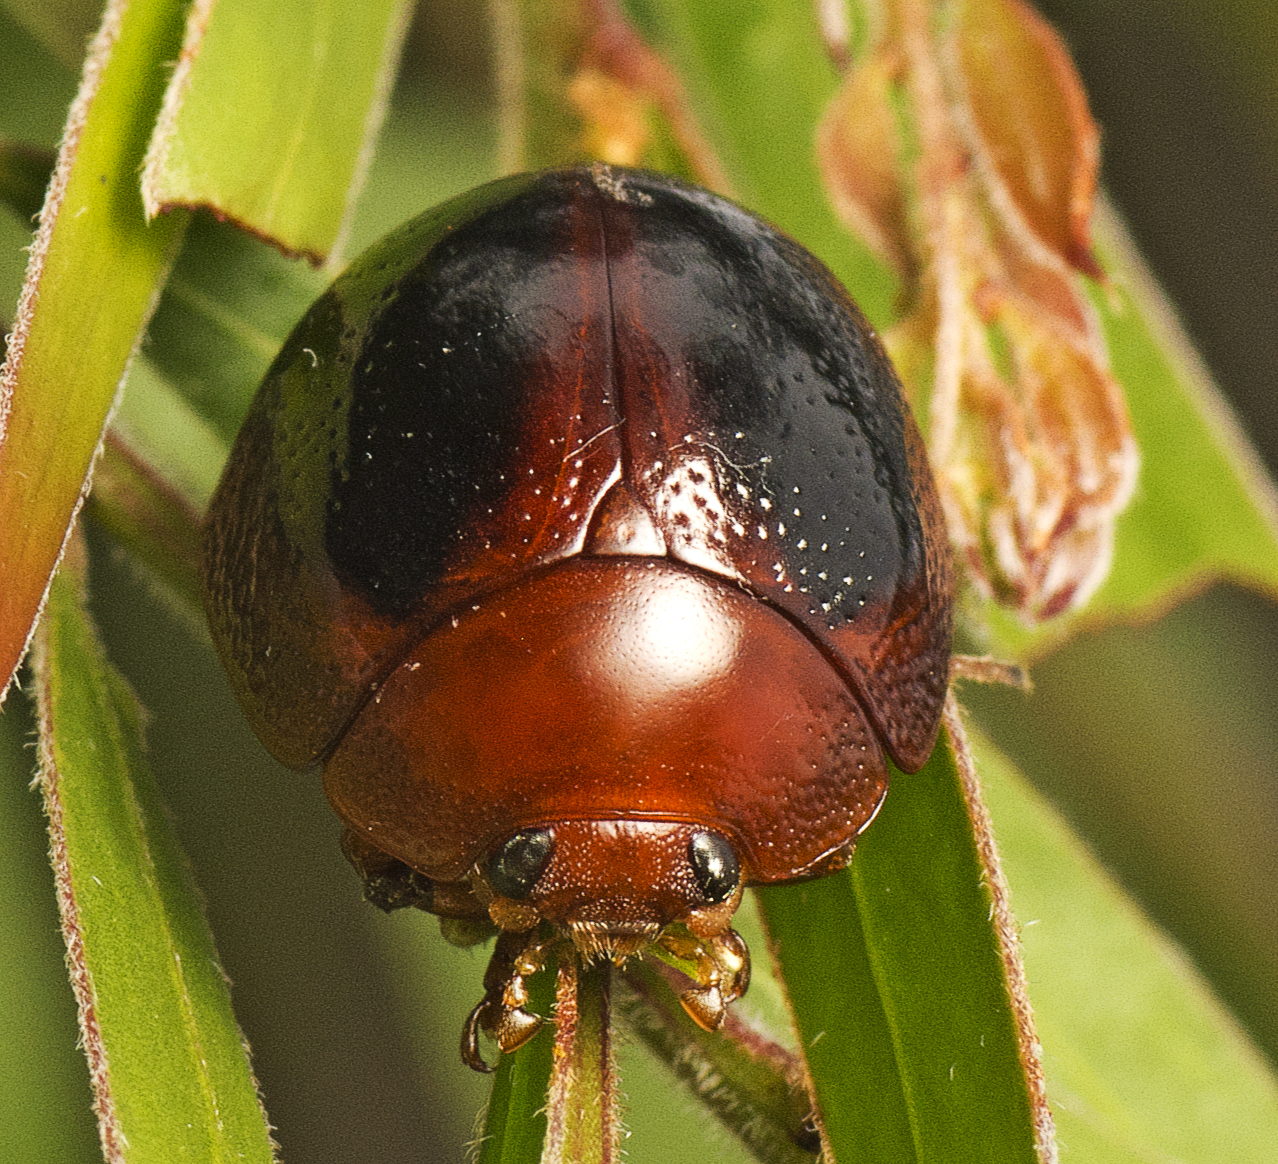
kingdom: Animalia
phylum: Arthropoda
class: Insecta
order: Coleoptera
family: Chrysomelidae
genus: Dicranosterna
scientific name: Dicranosterna
